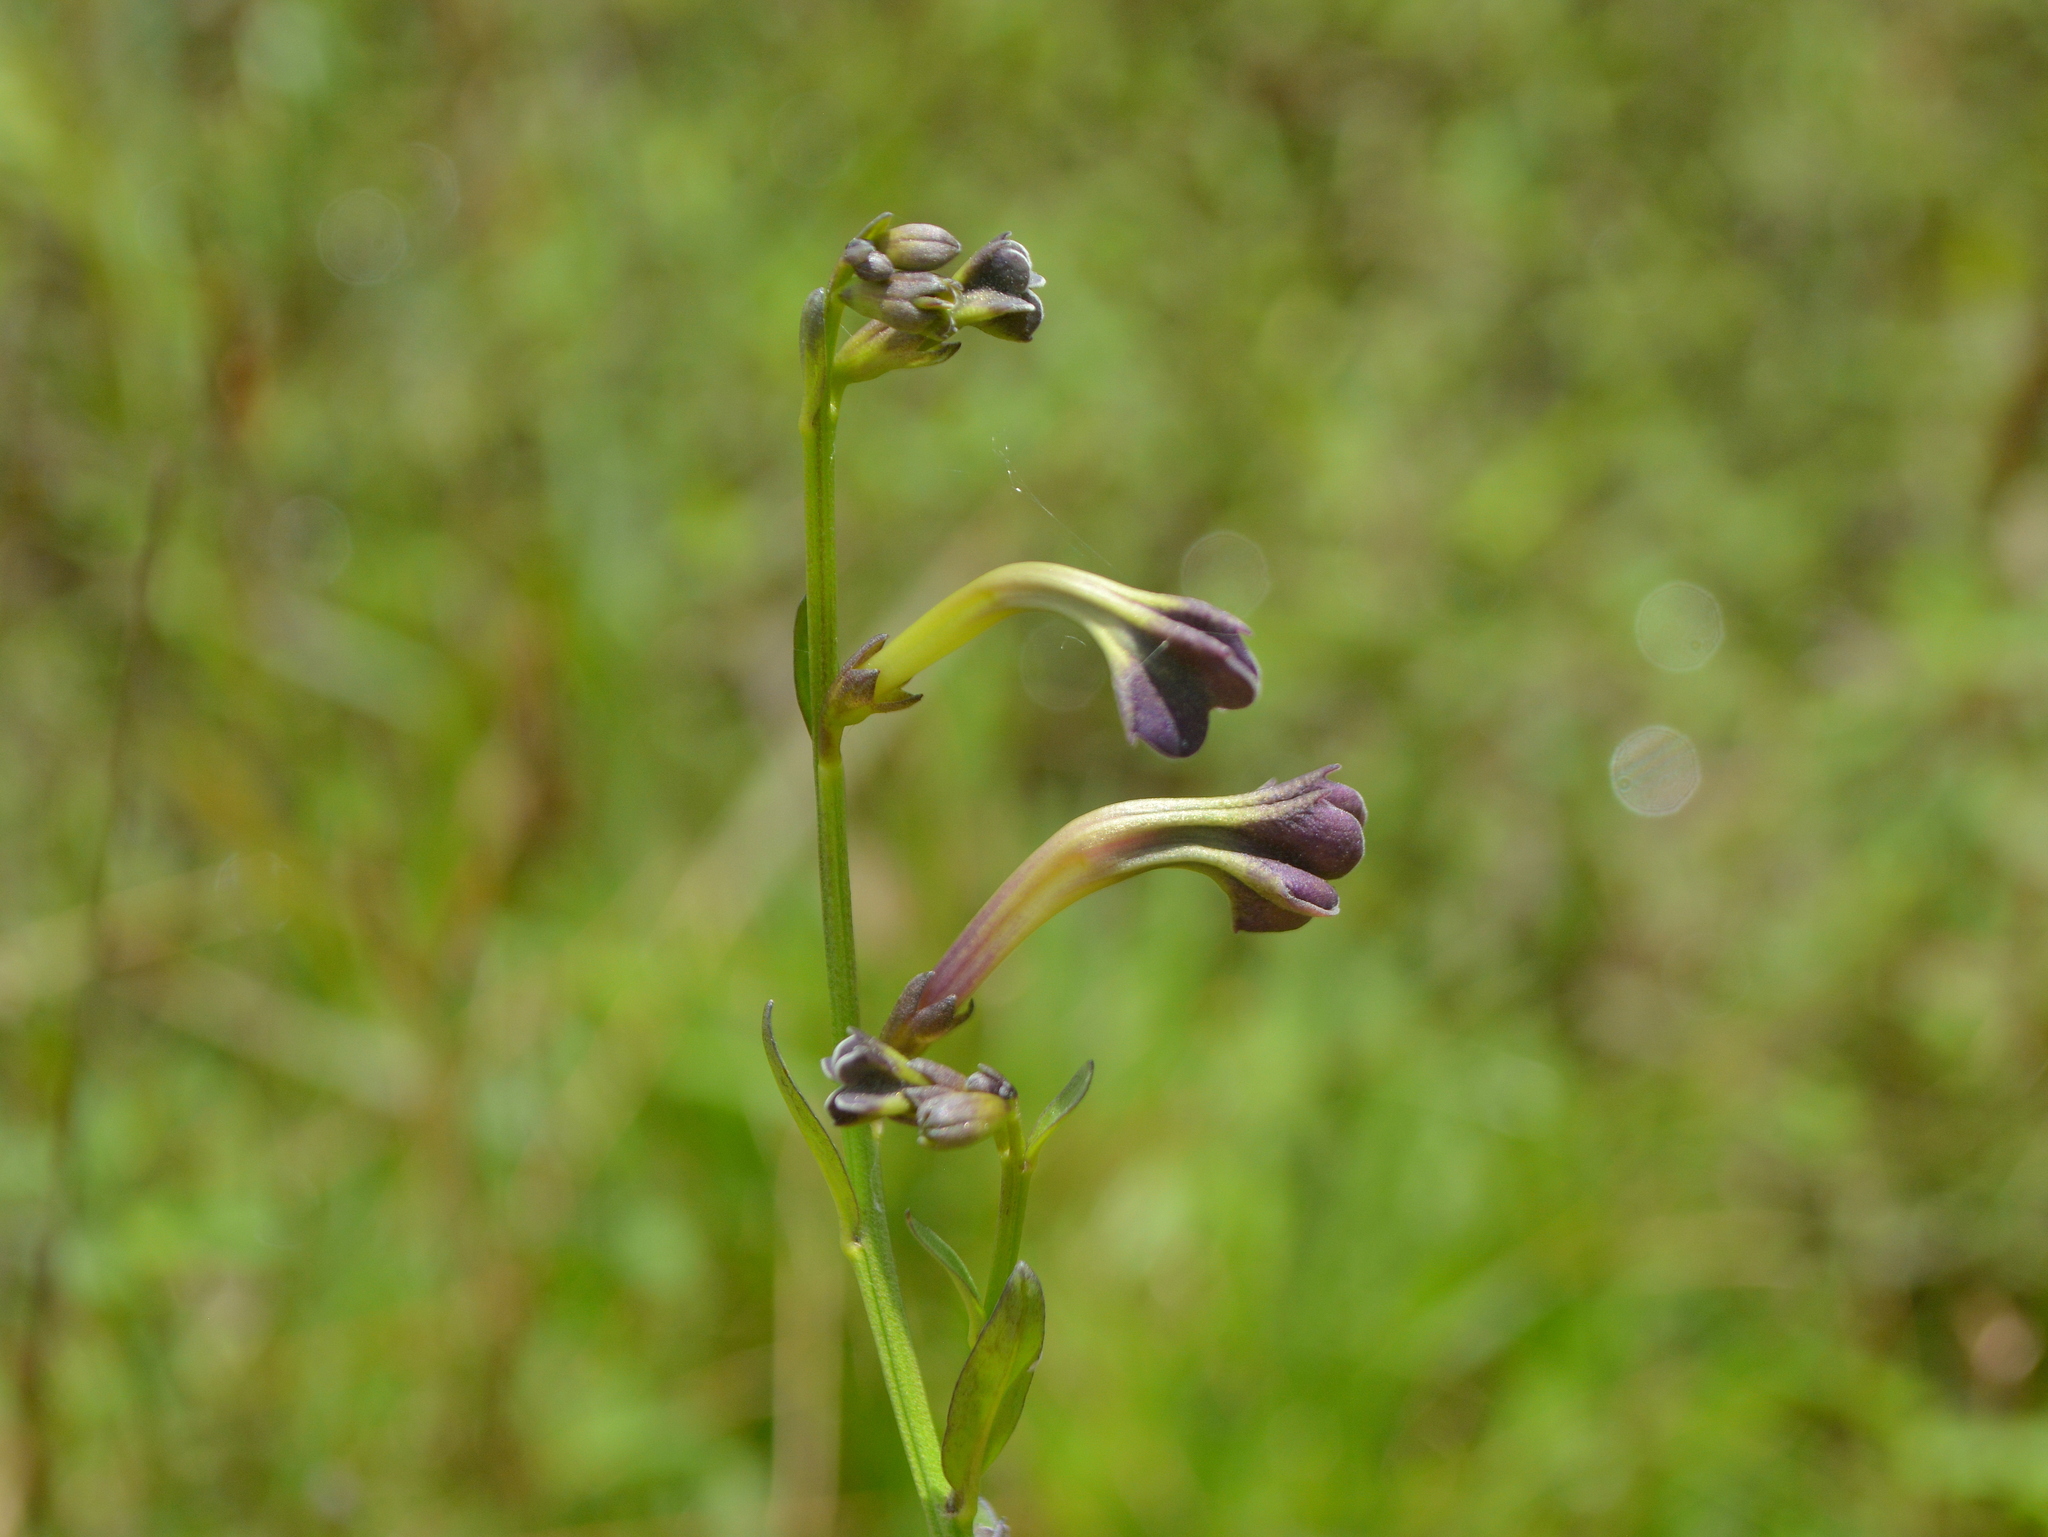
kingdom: Plantae
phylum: Tracheophyta
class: Magnoliopsida
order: Solanales
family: Solanaceae
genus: Schwenckia
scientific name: Schwenckia curviflora
